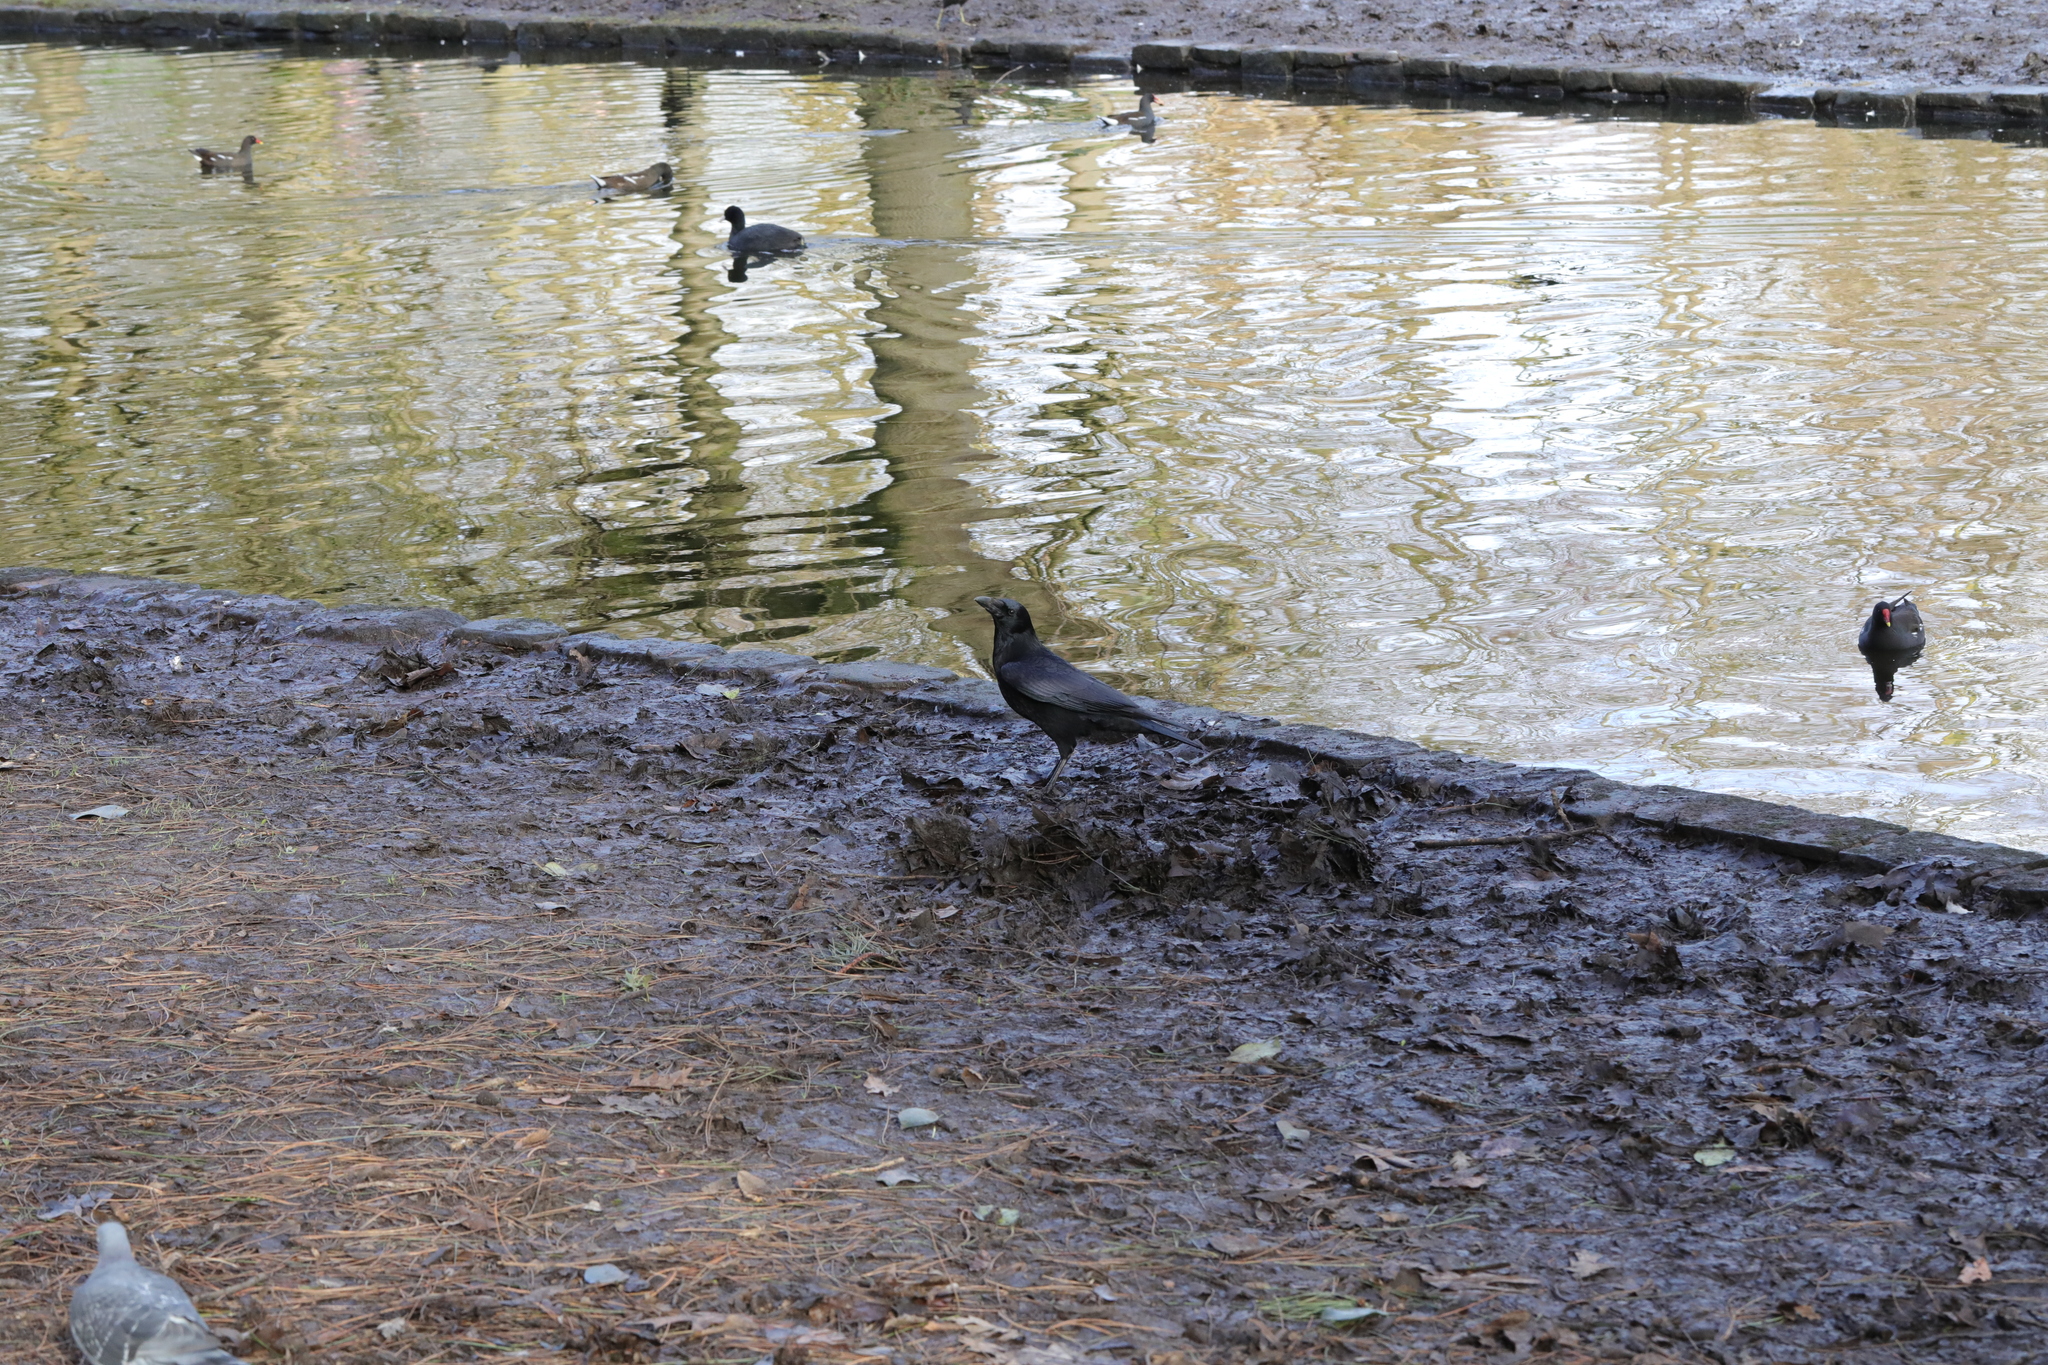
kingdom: Animalia
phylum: Chordata
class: Aves
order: Passeriformes
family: Corvidae
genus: Corvus
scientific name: Corvus corone
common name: Carrion crow
